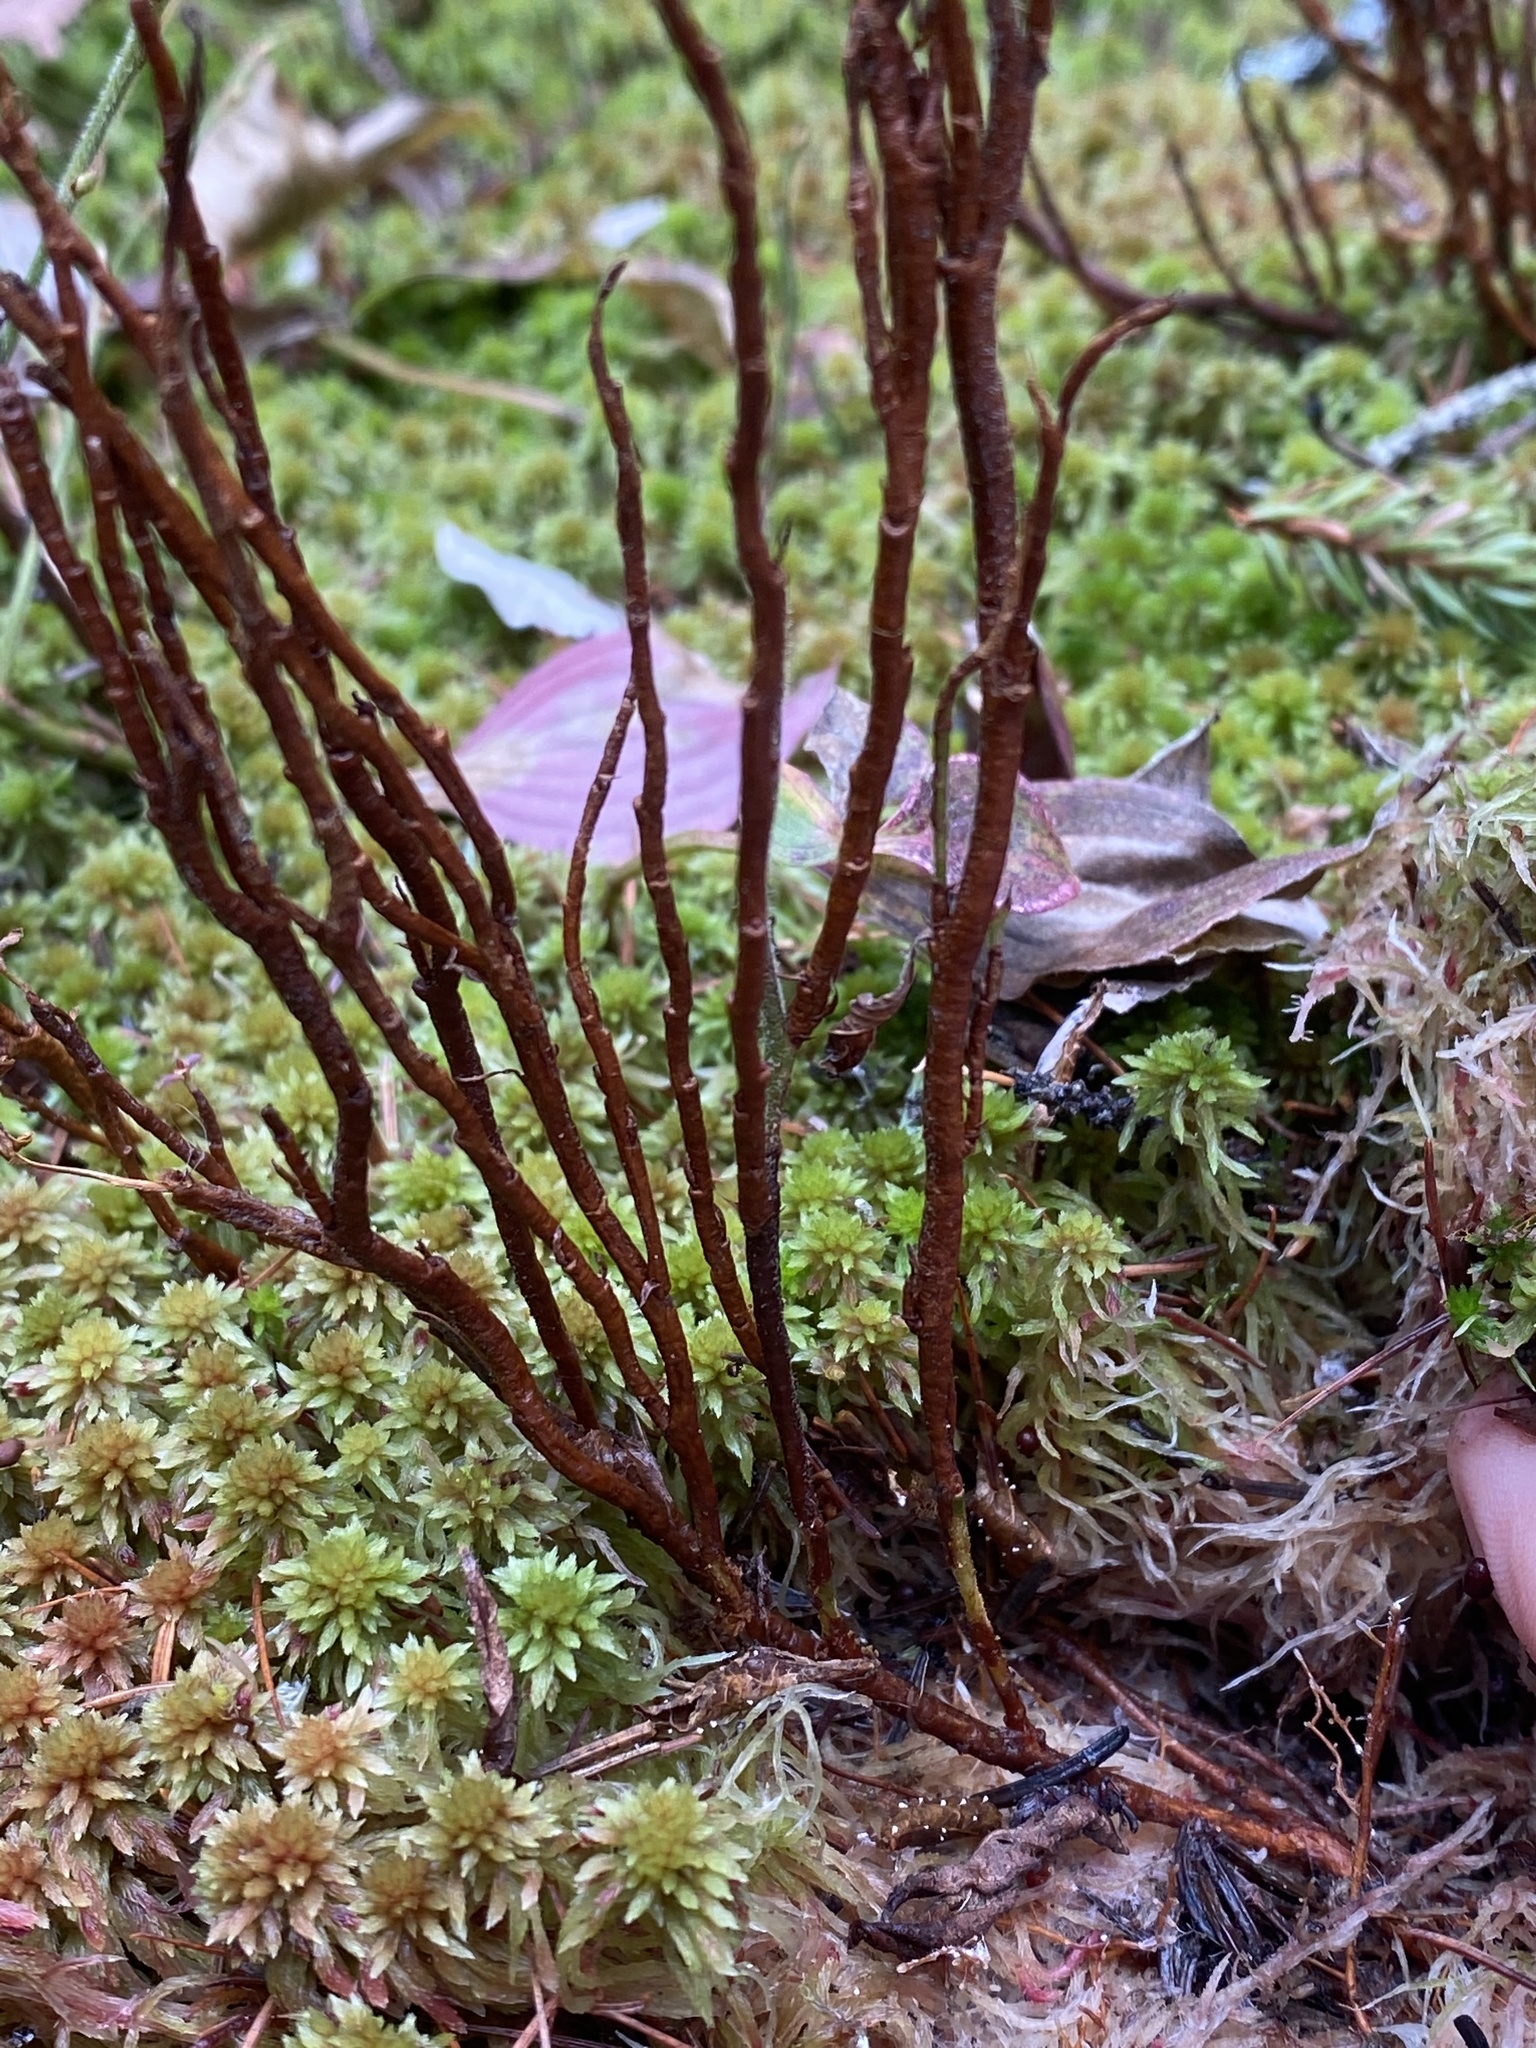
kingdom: Fungi
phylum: Basidiomycota
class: Pucciniomycetes
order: Pucciniales
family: Pucciniastraceae
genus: Calyptospora
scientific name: Calyptospora columnaris
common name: Huckleberry broom rust fungus
